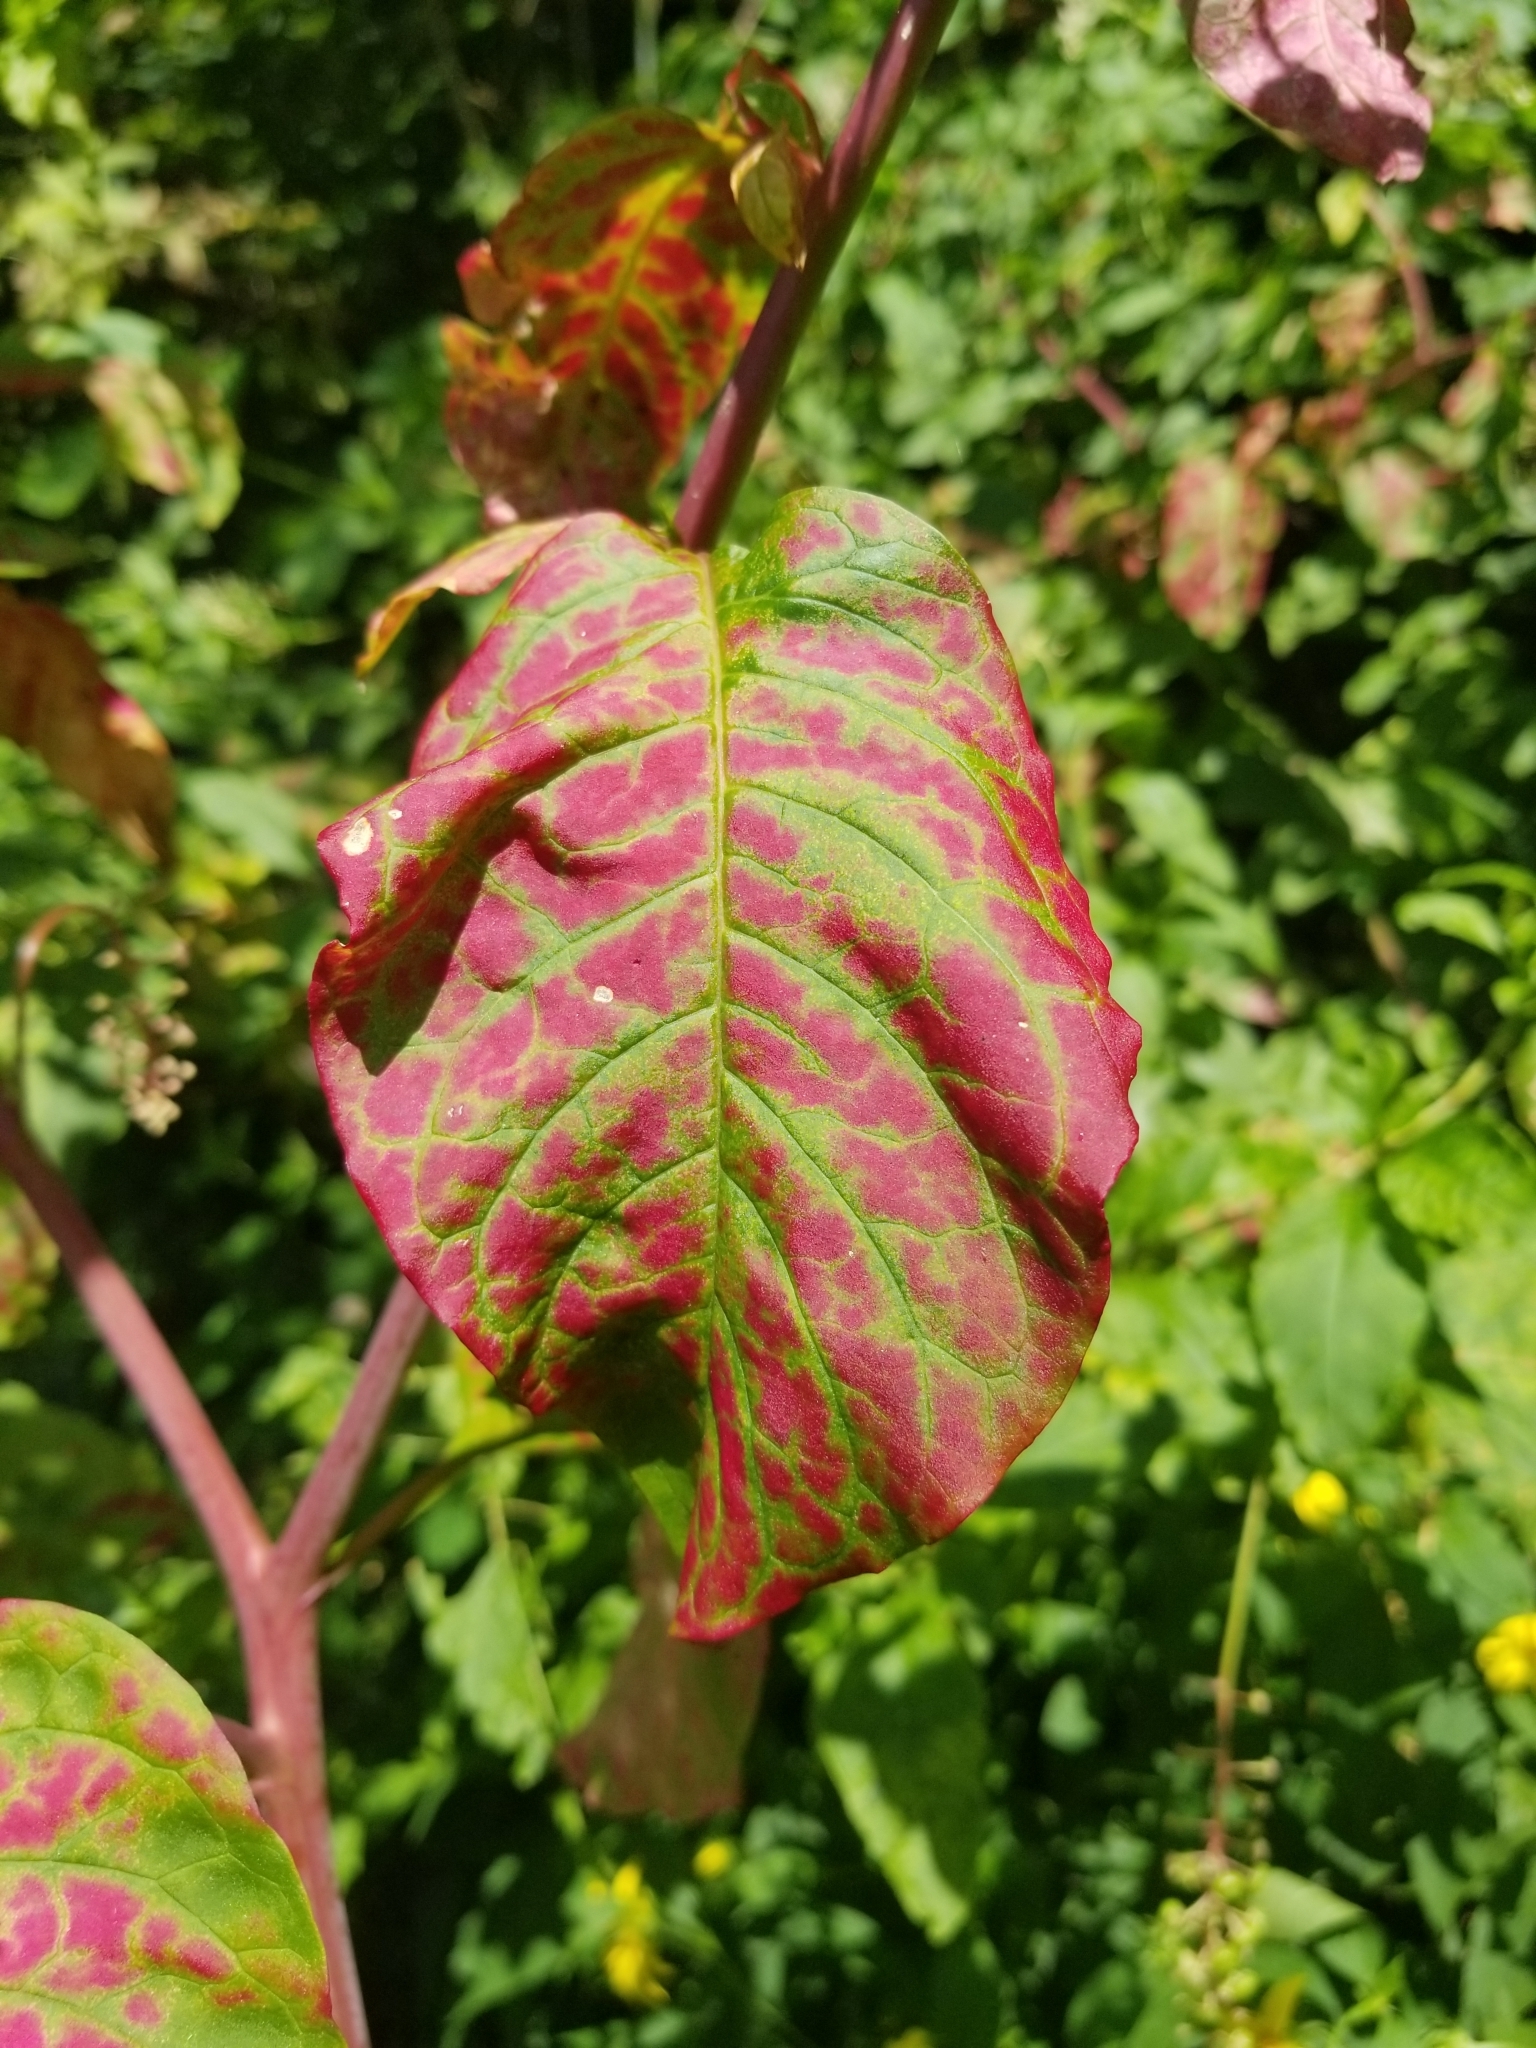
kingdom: Plantae
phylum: Tracheophyta
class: Magnoliopsida
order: Caryophyllales
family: Phytolaccaceae
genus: Phytolacca
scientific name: Phytolacca americana
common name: American pokeweed
